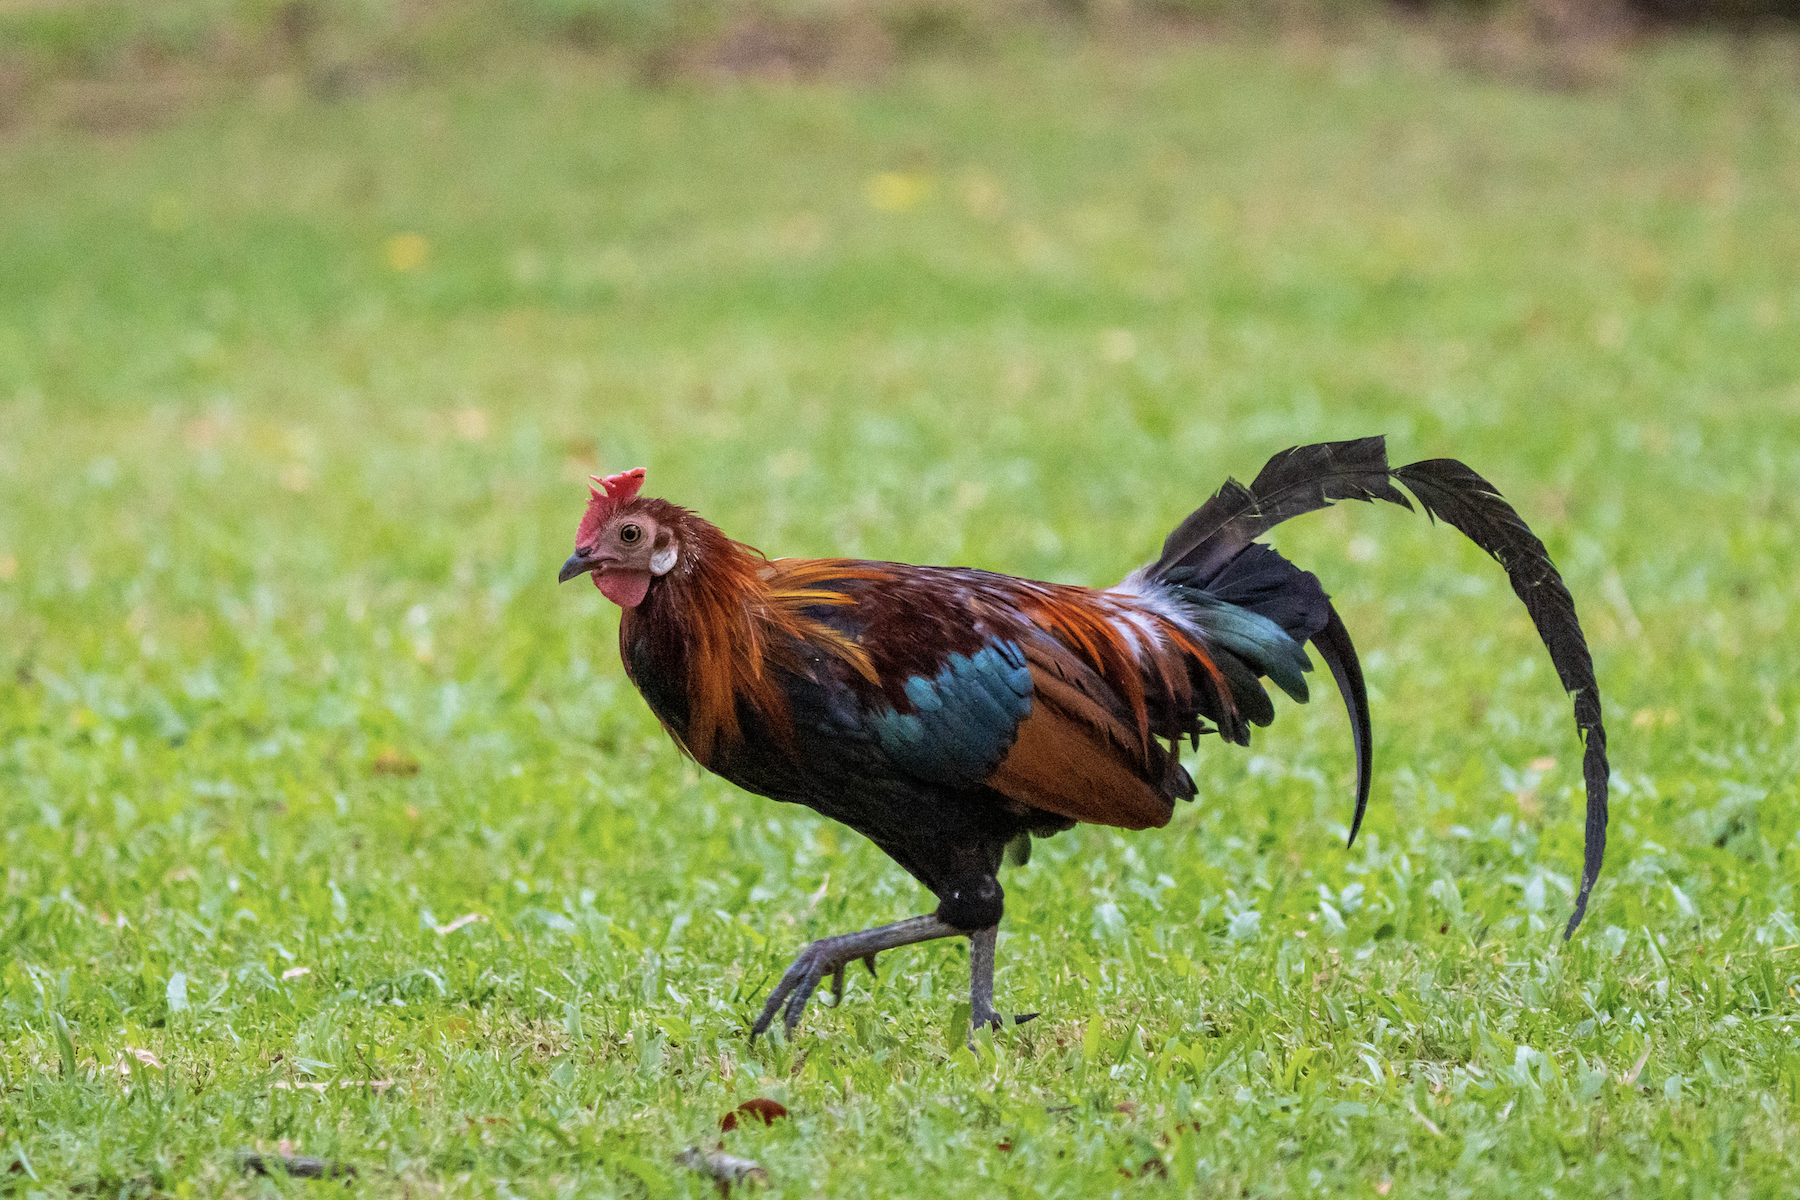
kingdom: Animalia
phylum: Chordata
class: Aves
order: Galliformes
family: Phasianidae
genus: Gallus
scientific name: Gallus gallus
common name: Red junglefowl
